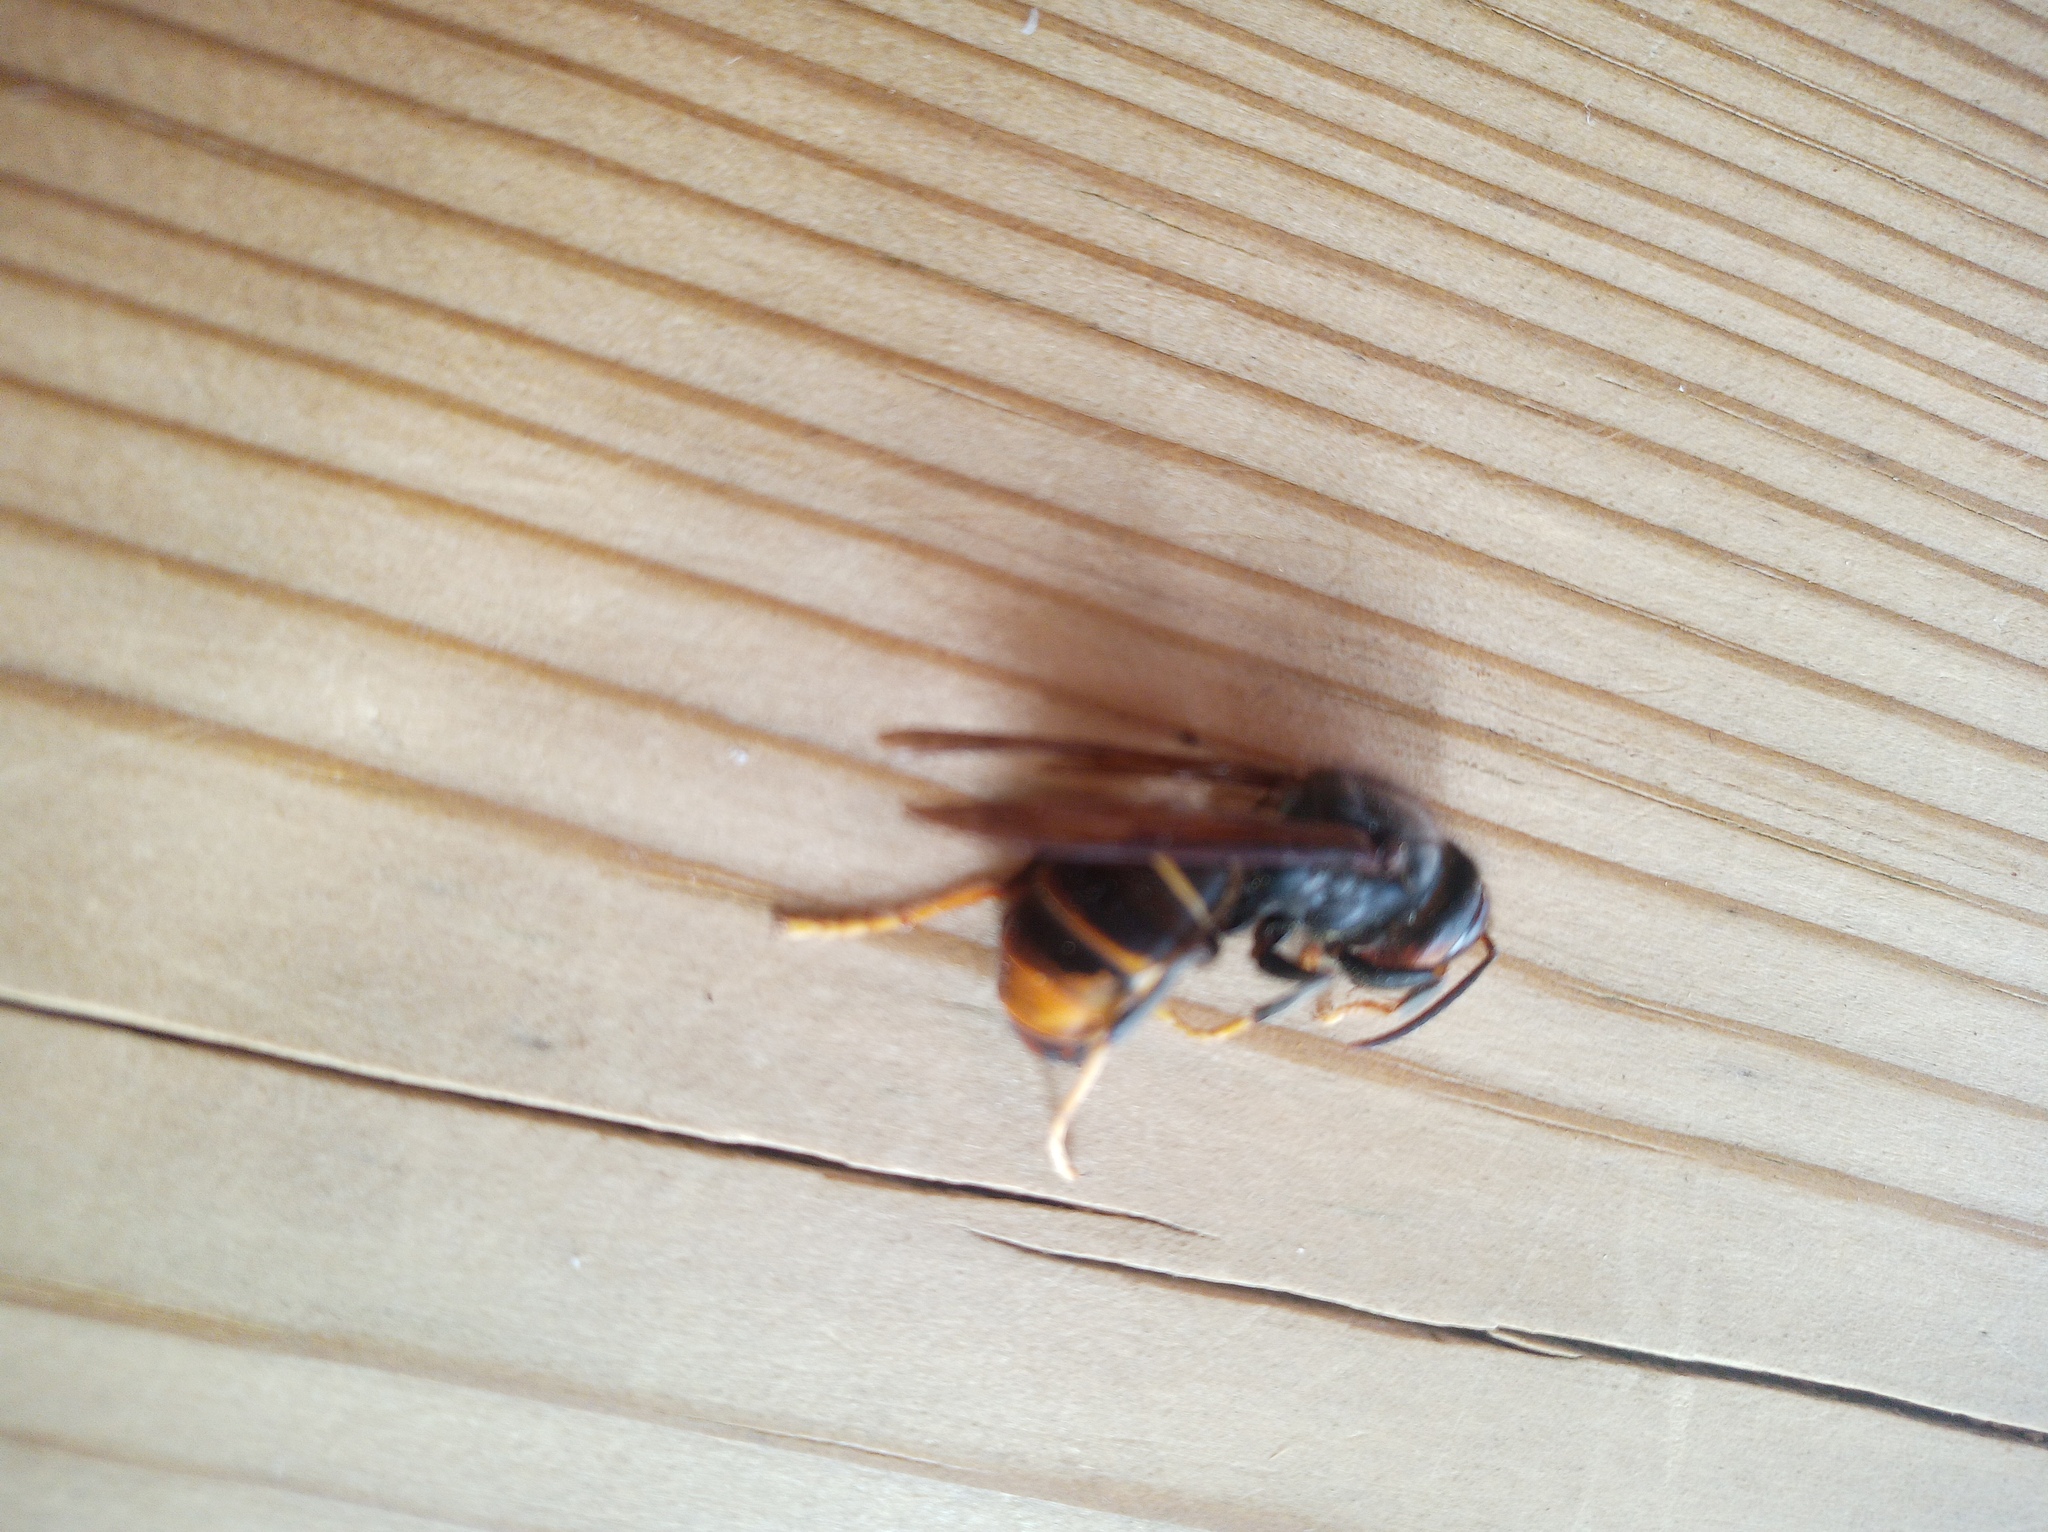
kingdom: Animalia
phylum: Arthropoda
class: Insecta
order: Hymenoptera
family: Vespidae
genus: Vespa
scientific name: Vespa velutina
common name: Asian hornet
